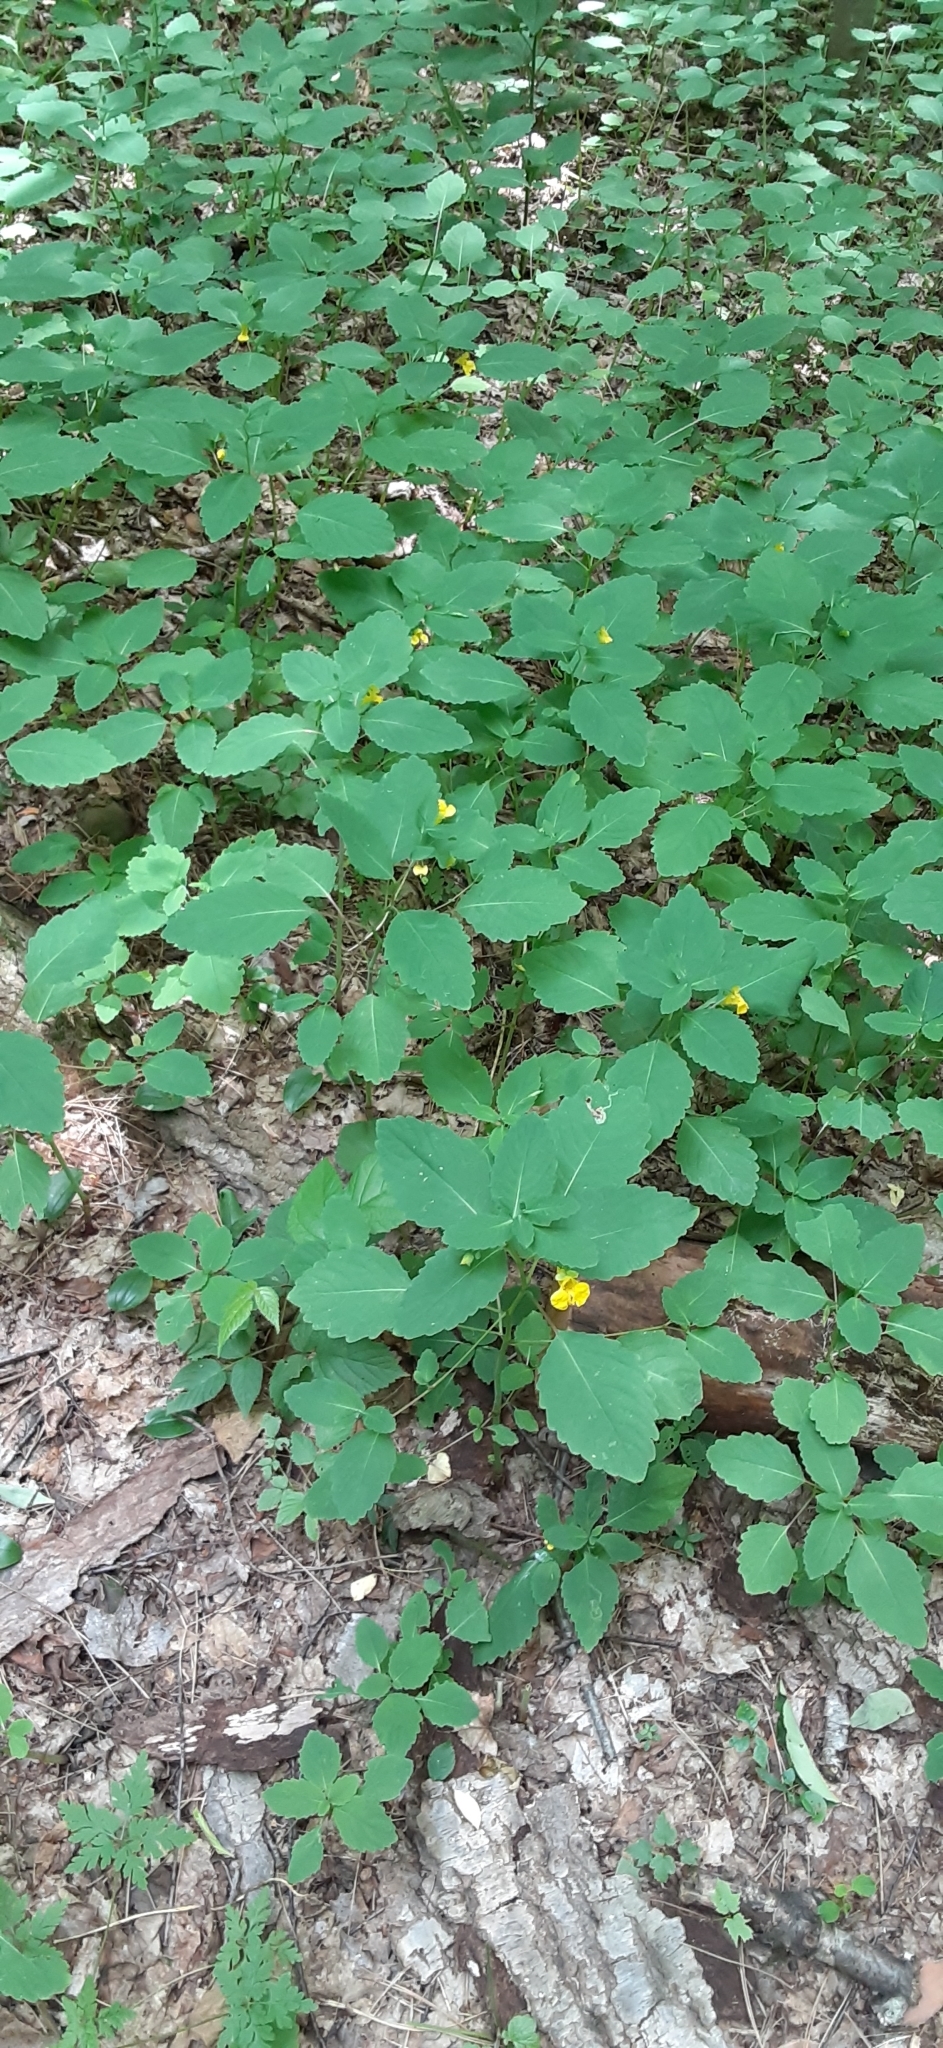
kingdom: Plantae
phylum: Tracheophyta
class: Magnoliopsida
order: Ericales
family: Balsaminaceae
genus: Impatiens
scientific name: Impatiens pallida
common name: Pale snapweed
